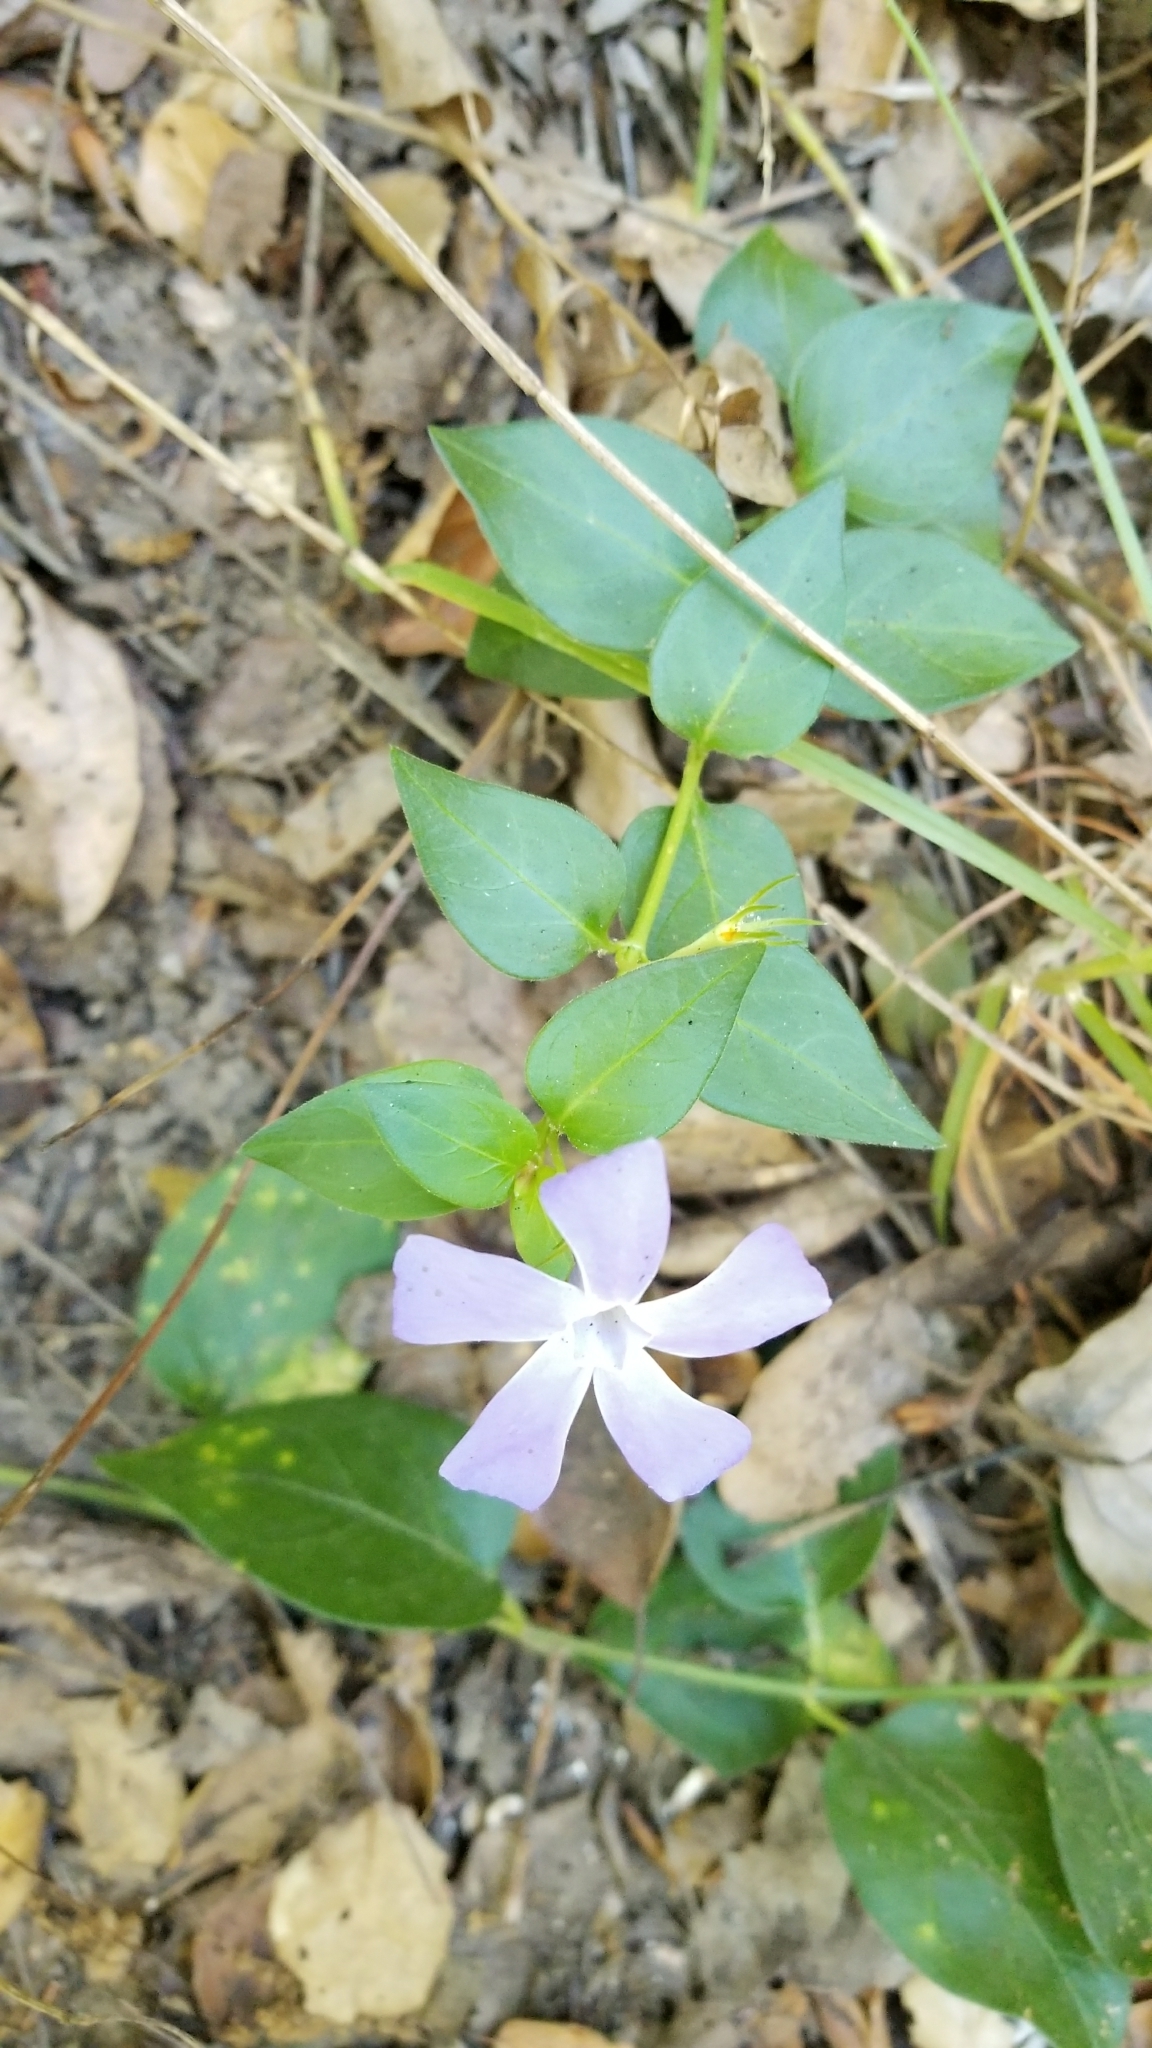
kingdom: Plantae
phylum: Tracheophyta
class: Magnoliopsida
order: Gentianales
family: Apocynaceae
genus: Vinca
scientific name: Vinca major
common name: Greater periwinkle
